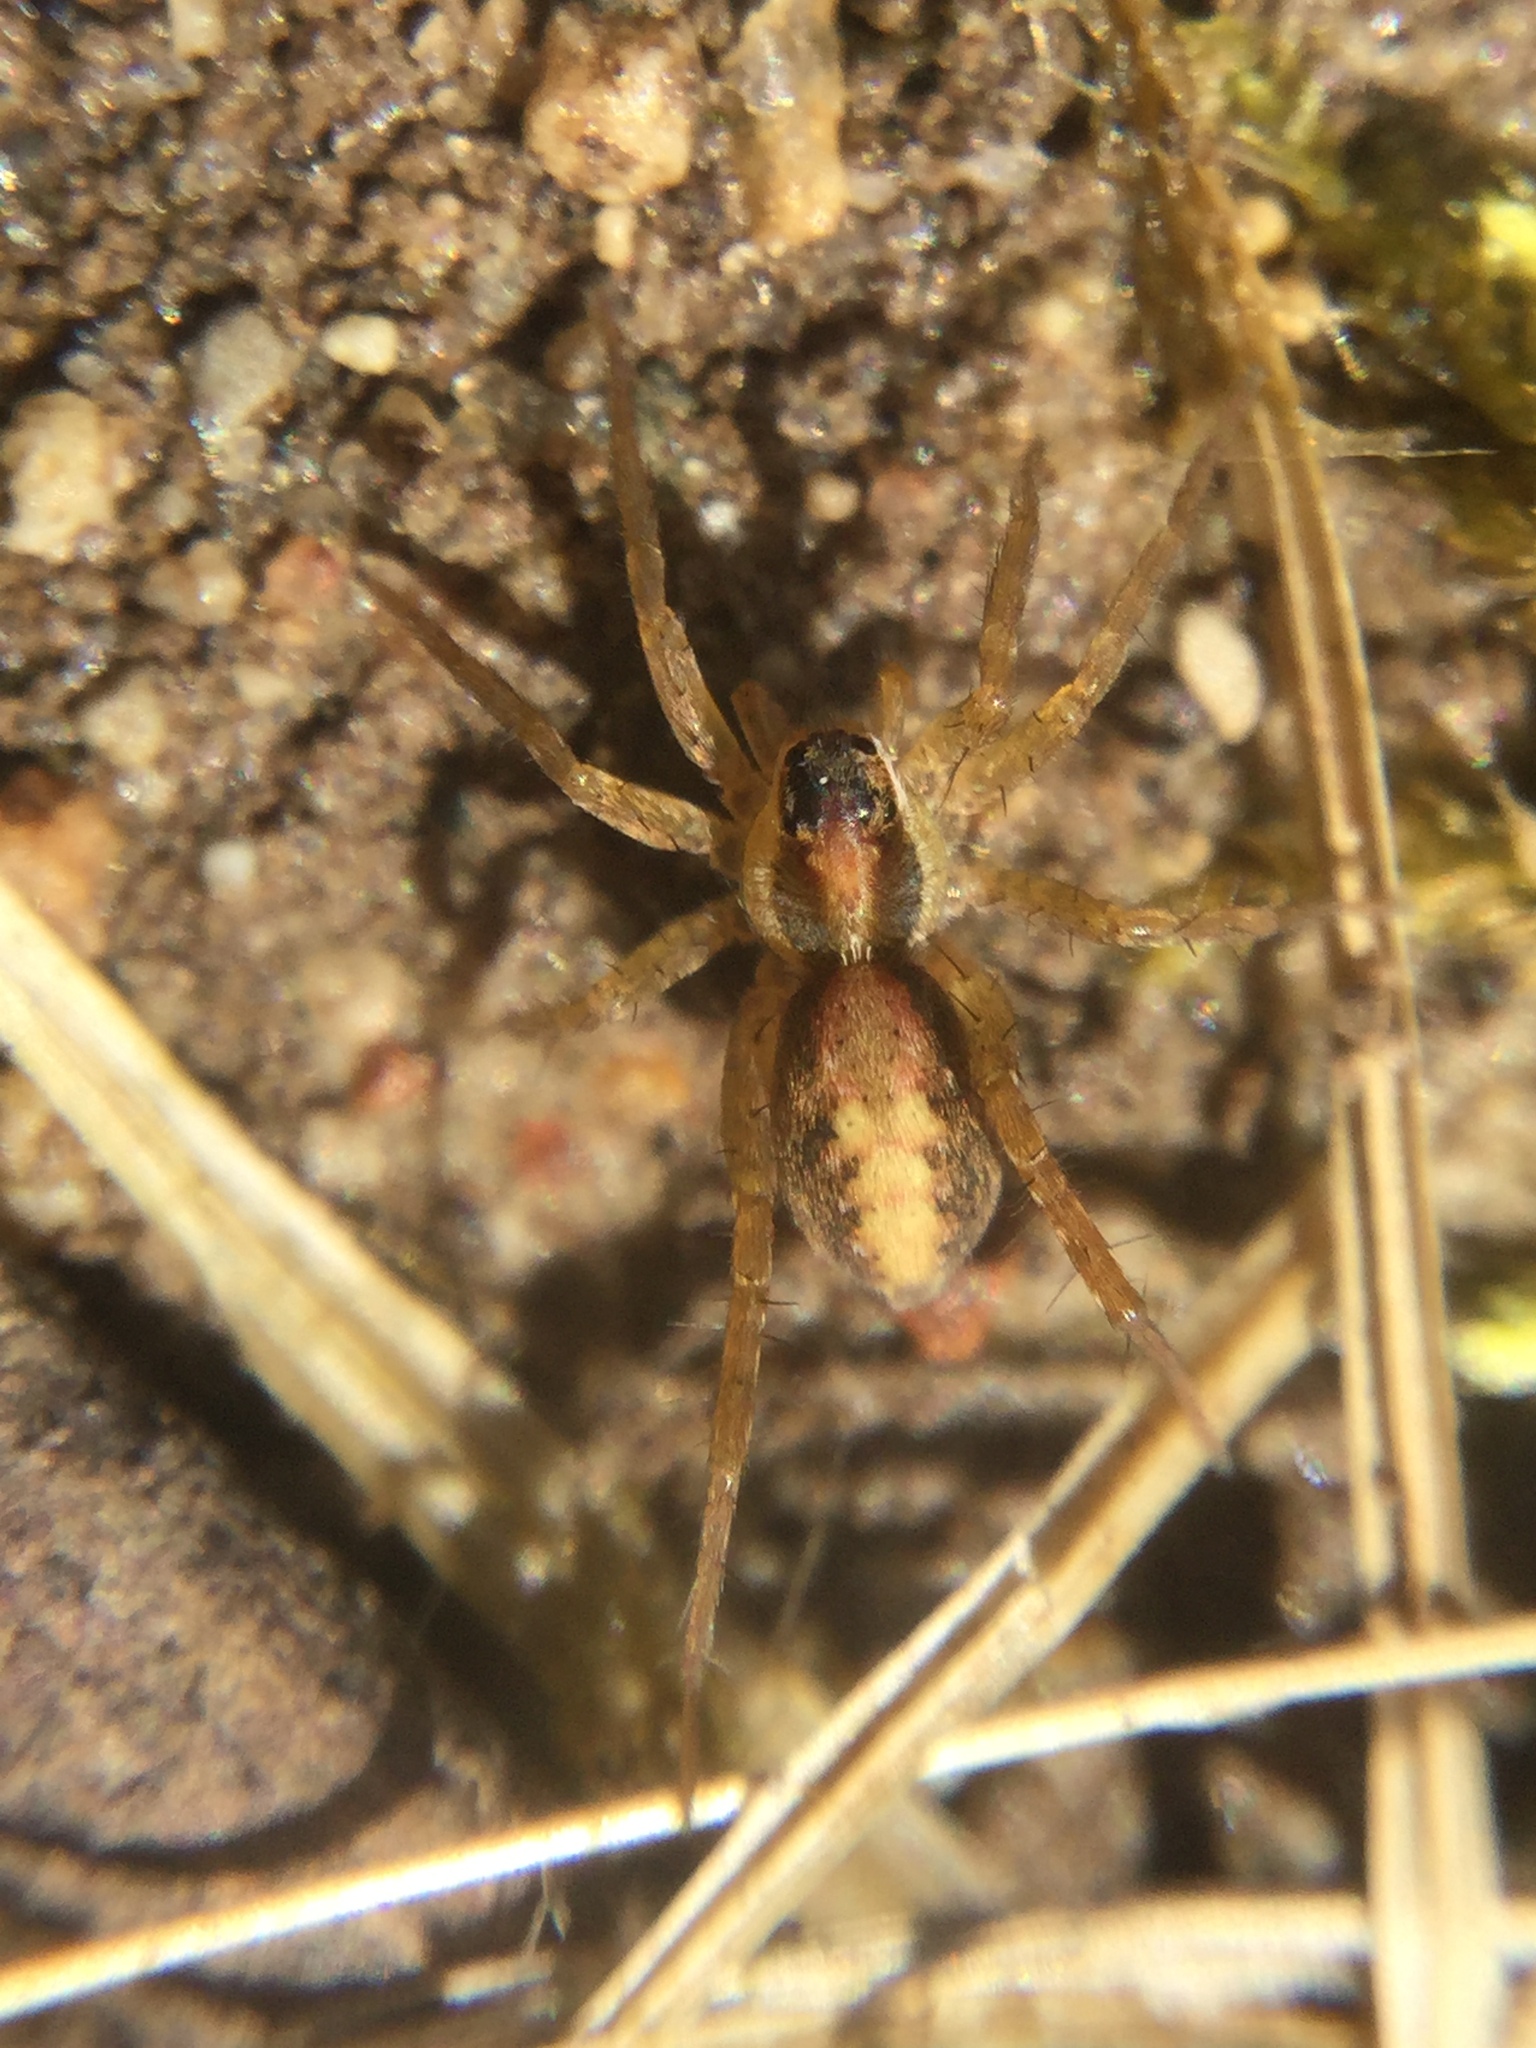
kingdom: Animalia
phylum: Arthropoda
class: Arachnida
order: Araneae
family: Lycosidae
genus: Pardosa
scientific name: Pardosa pauxilla
